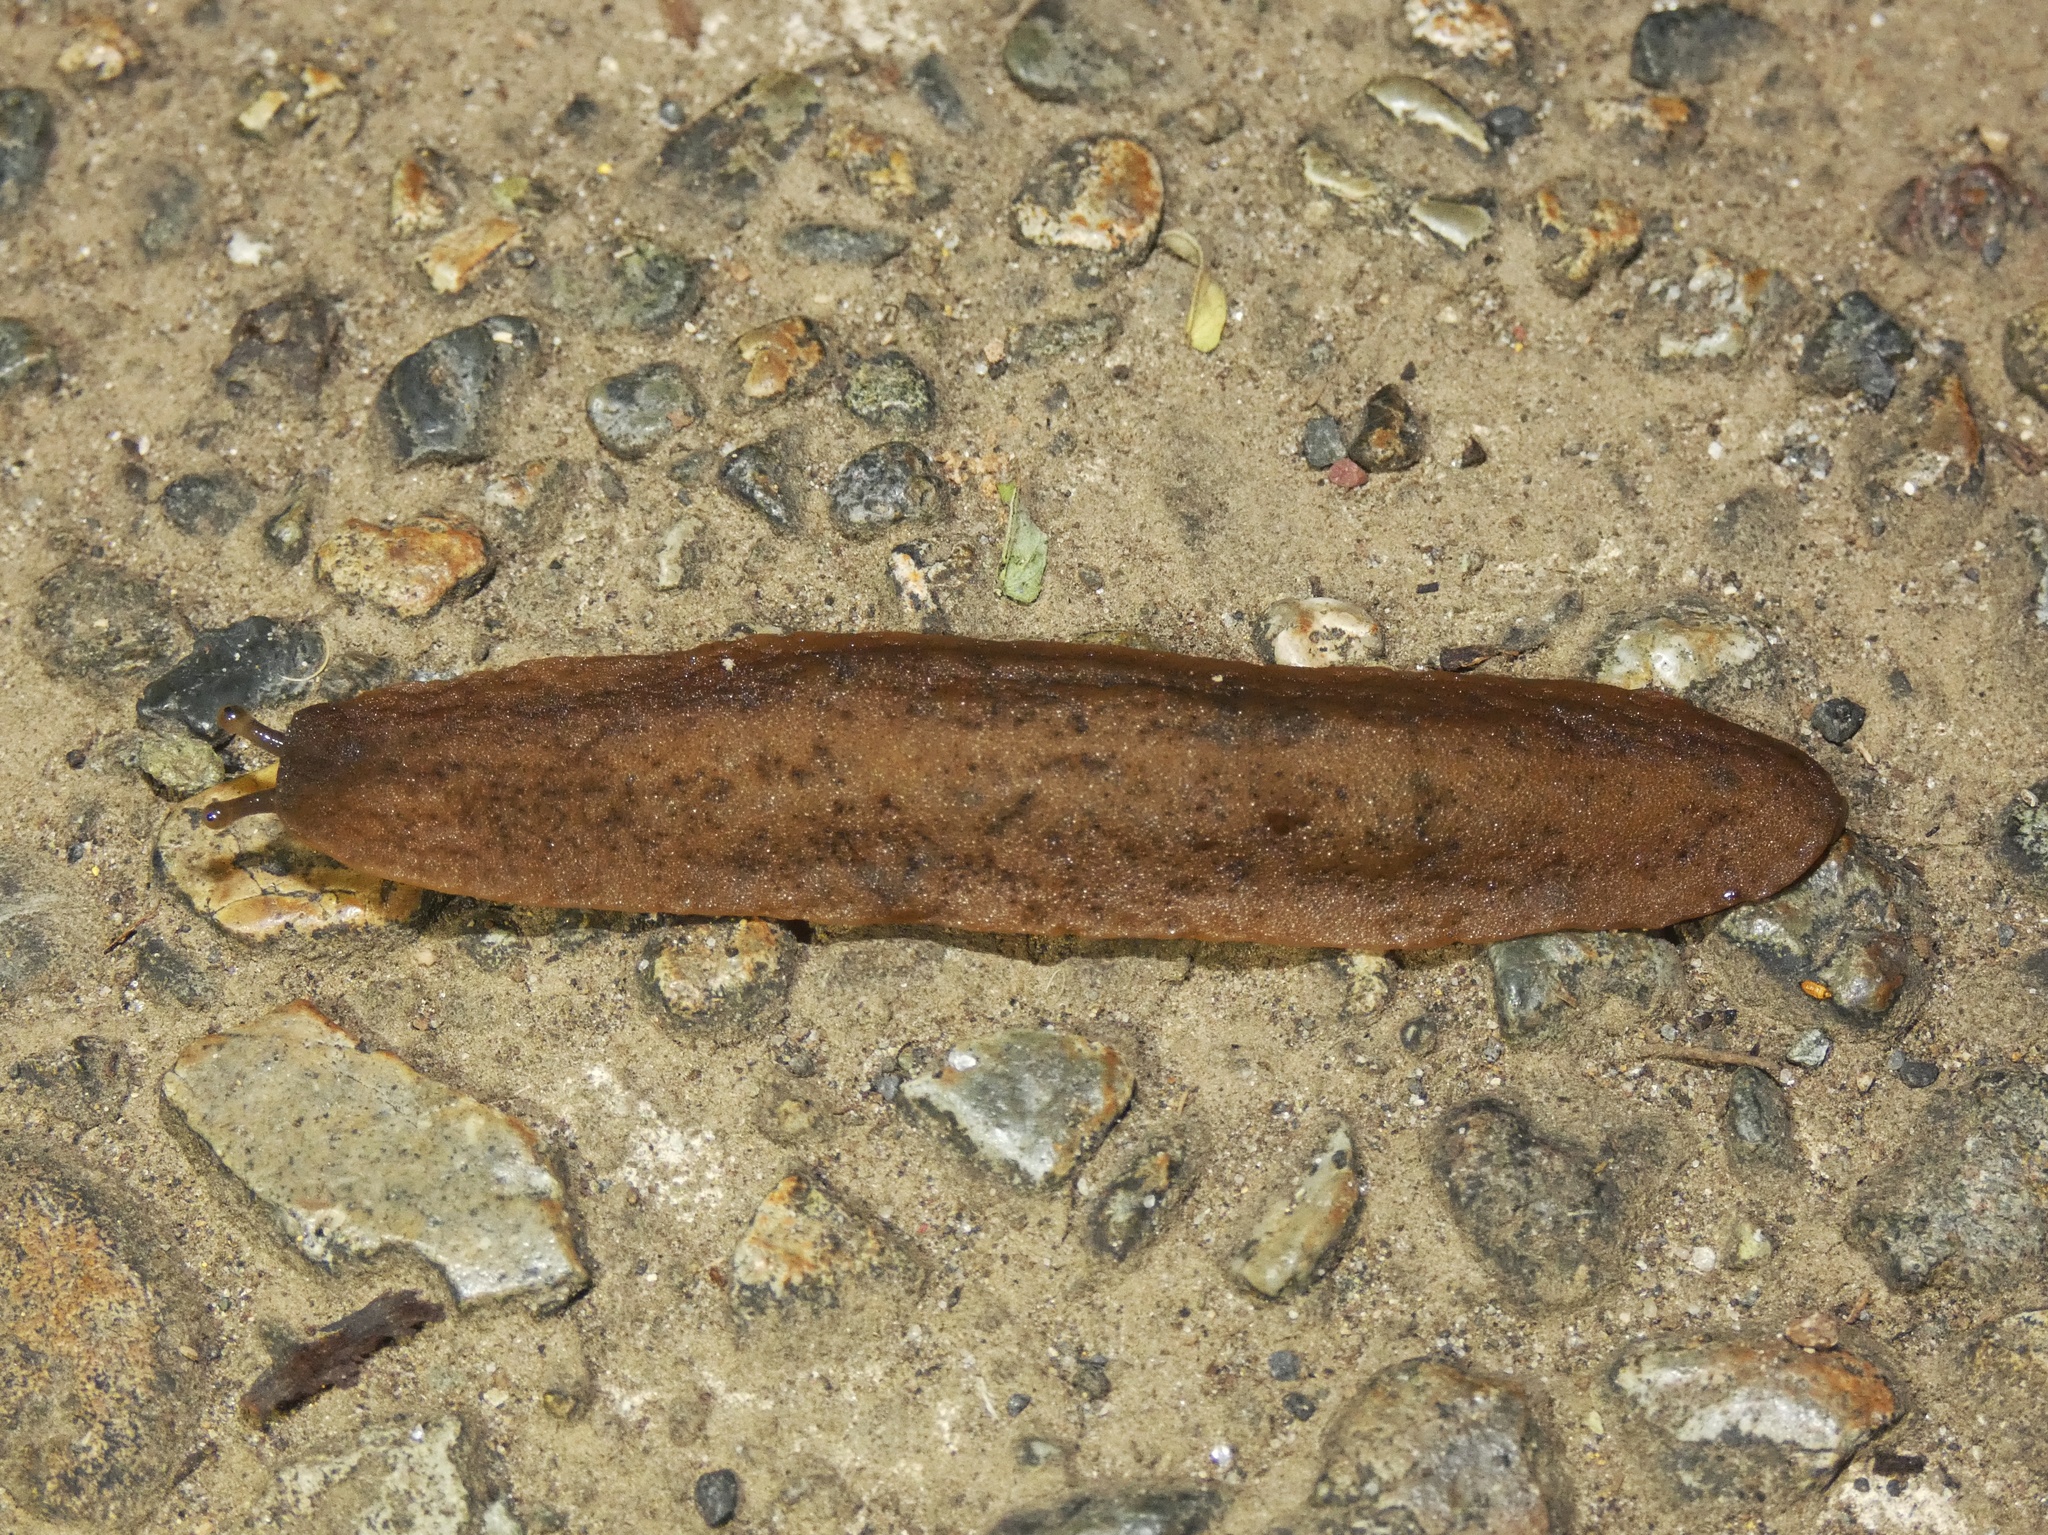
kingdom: Animalia
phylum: Mollusca
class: Gastropoda
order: Systellommatophora
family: Veronicellidae
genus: Sarasinula
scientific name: Sarasinula plebeia
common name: Caribbean leatherleaf
